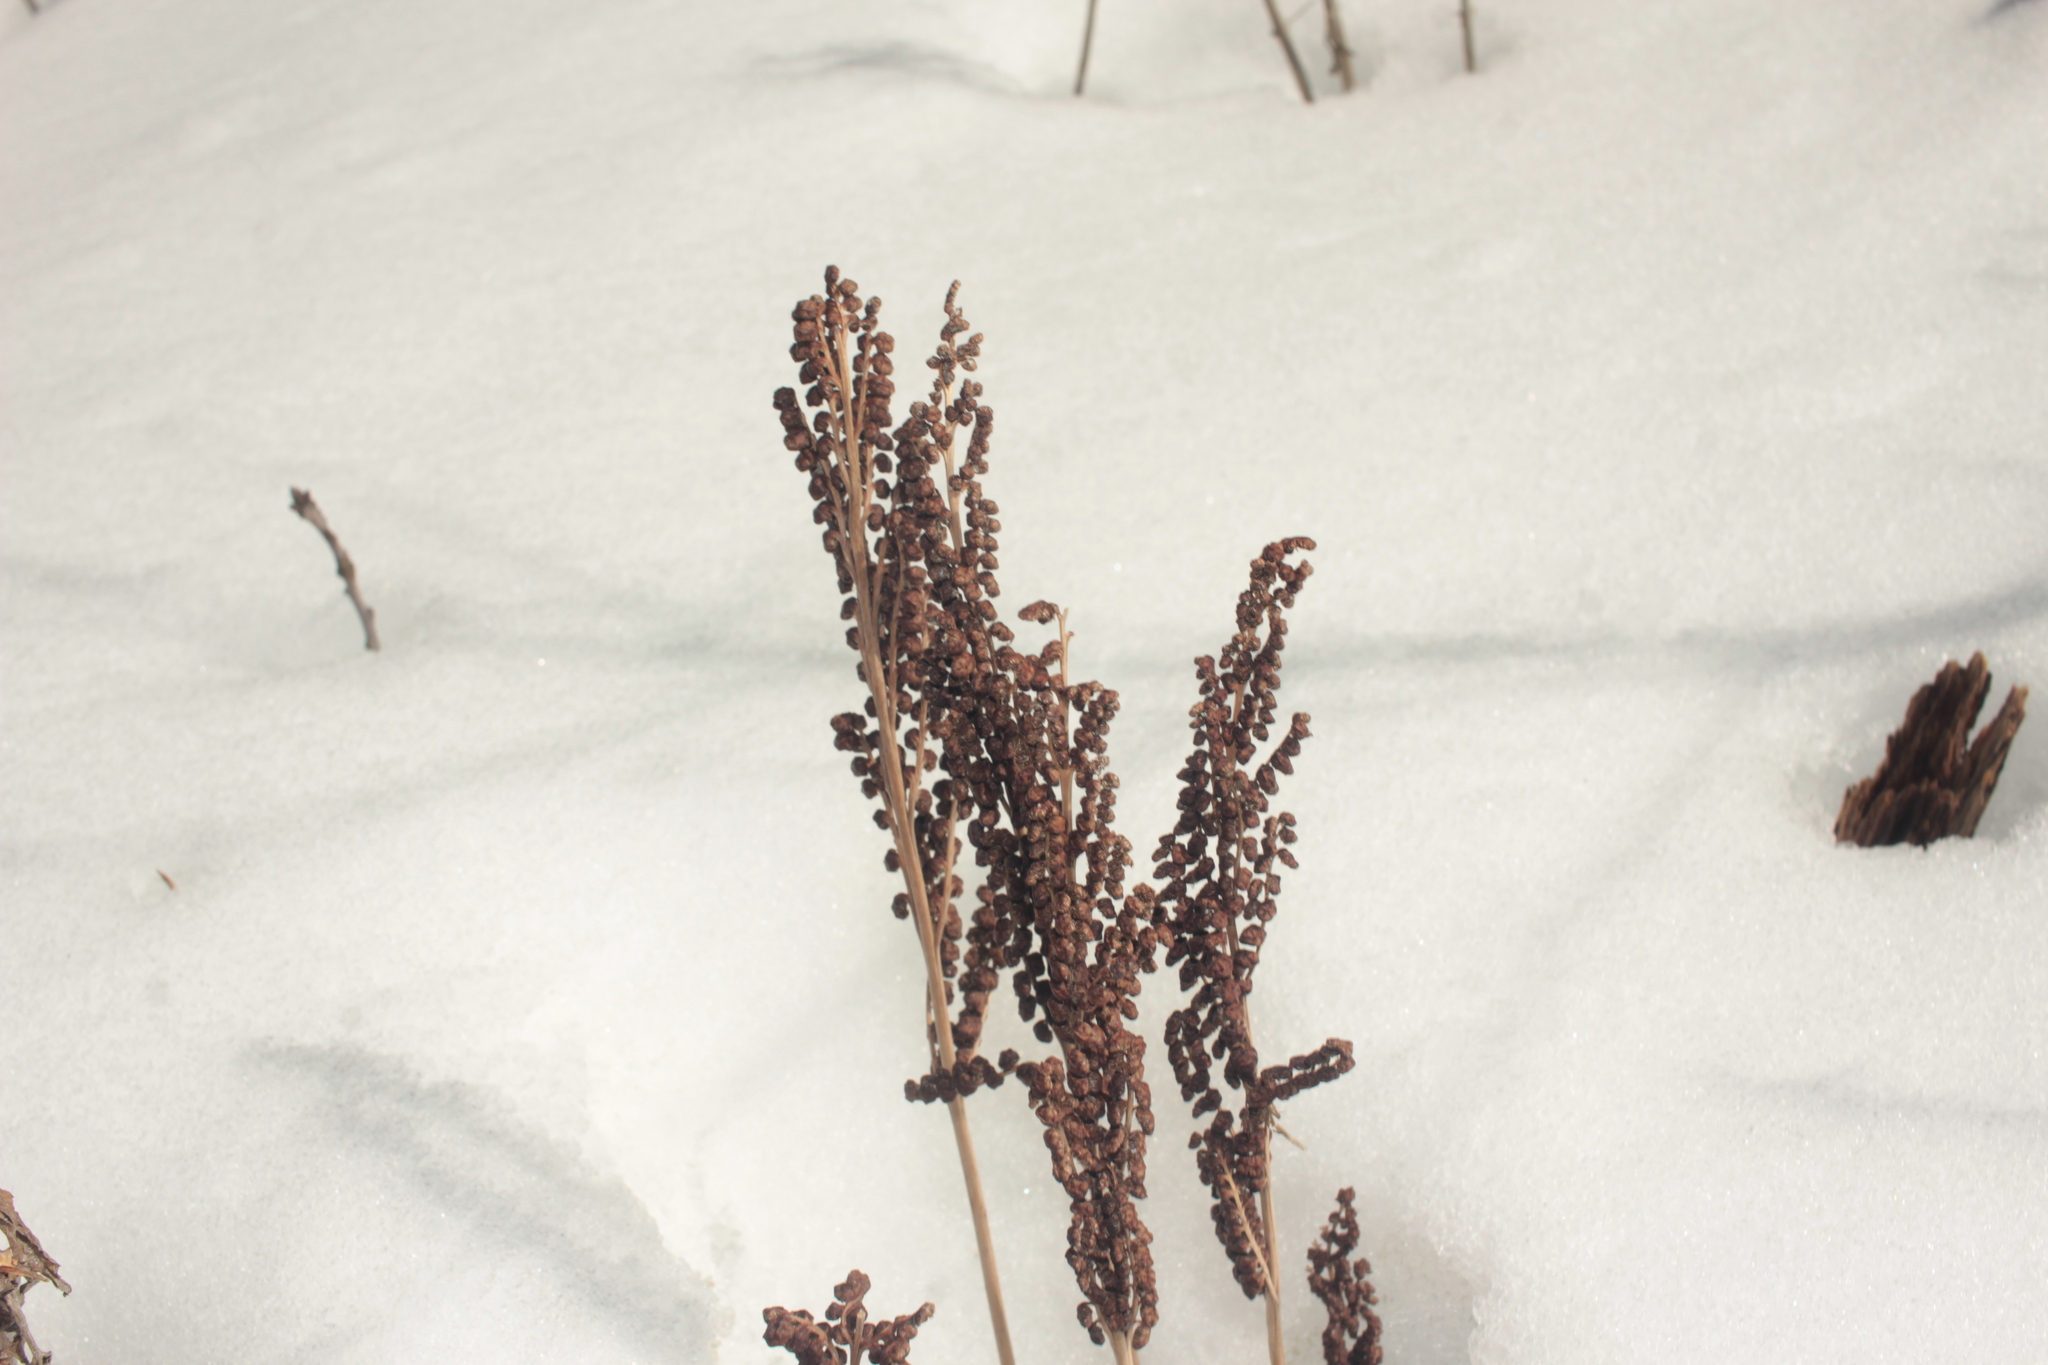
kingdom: Plantae
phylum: Tracheophyta
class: Polypodiopsida
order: Polypodiales
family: Onocleaceae
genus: Onoclea
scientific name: Onoclea sensibilis
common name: Sensitive fern
